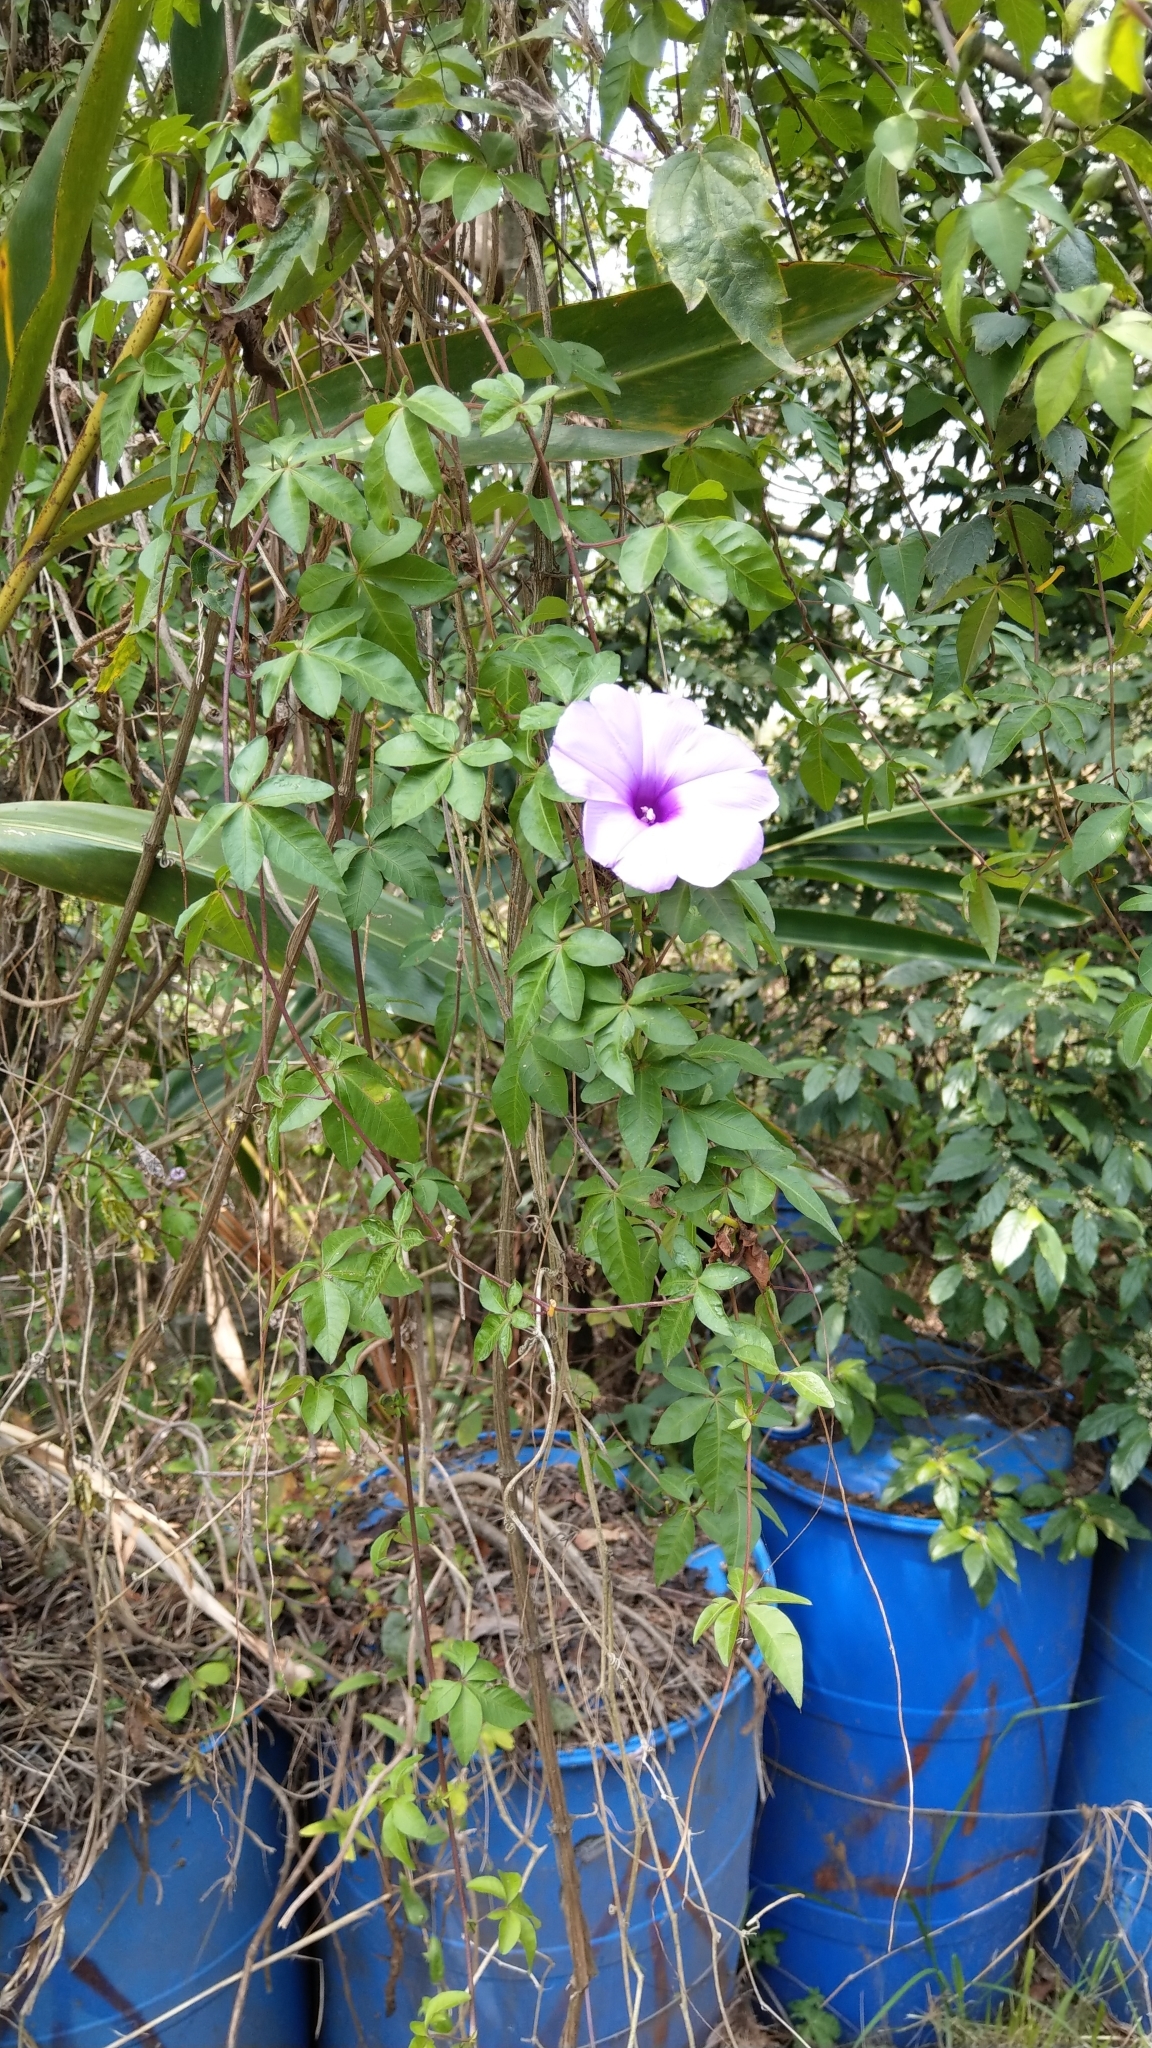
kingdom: Plantae
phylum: Tracheophyta
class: Magnoliopsida
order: Solanales
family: Convolvulaceae
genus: Ipomoea
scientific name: Ipomoea cairica
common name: Mile a minute vine
